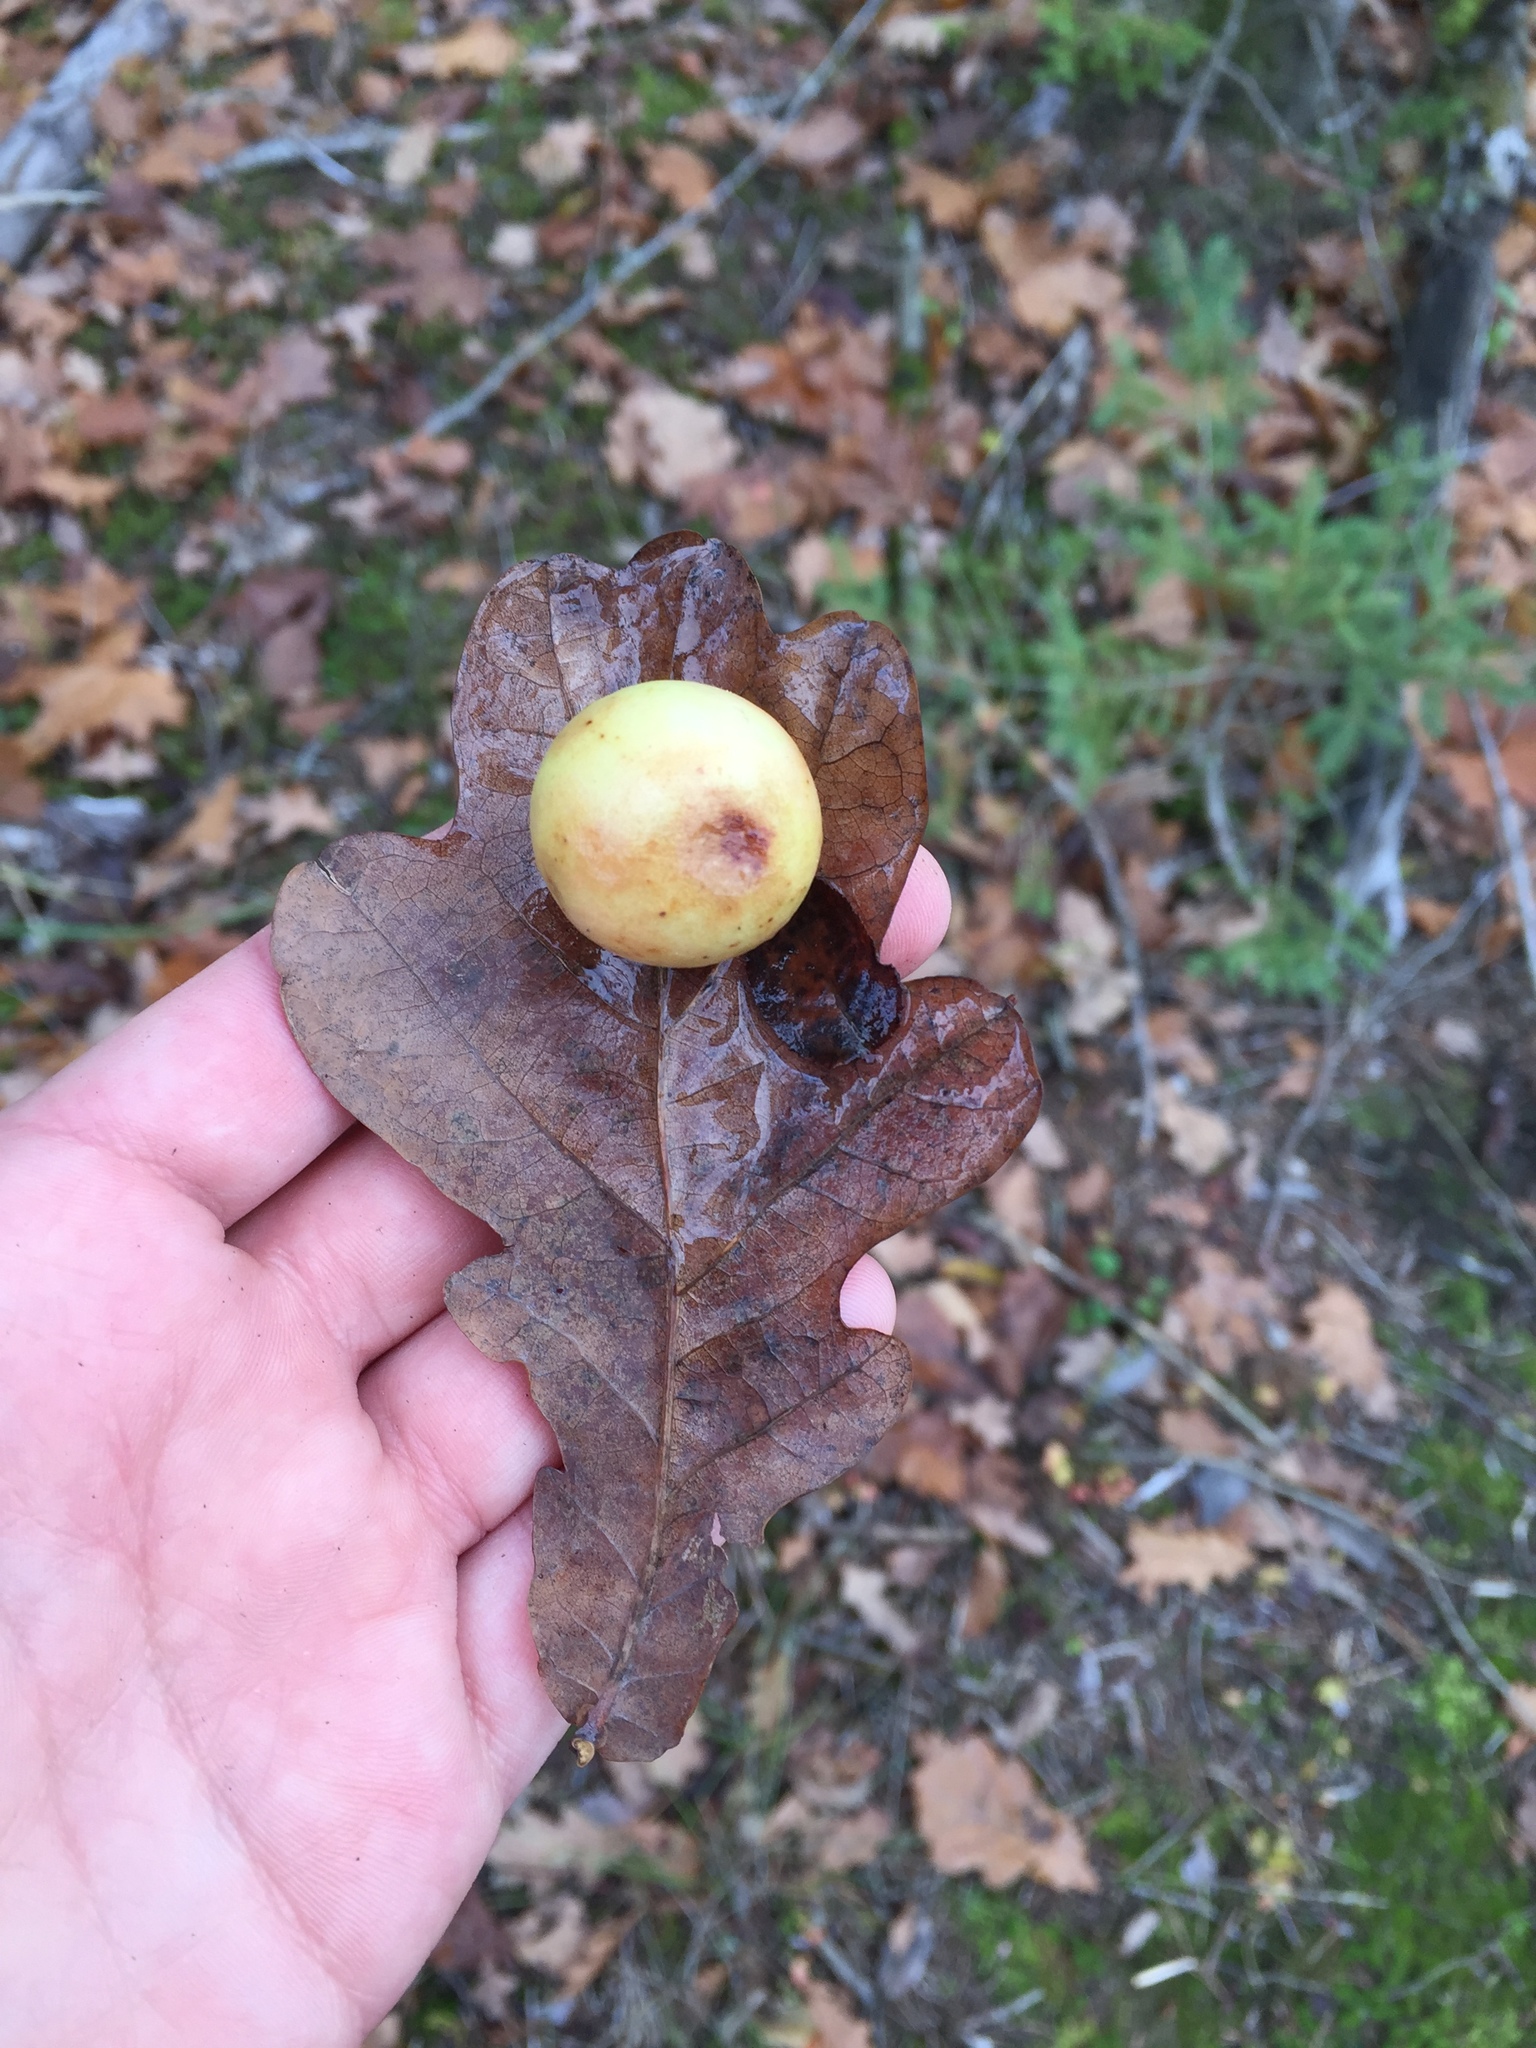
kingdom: Animalia
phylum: Arthropoda
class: Insecta
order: Hymenoptera
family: Cynipidae
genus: Cynips
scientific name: Cynips quercusfolii
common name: Cherry gall
